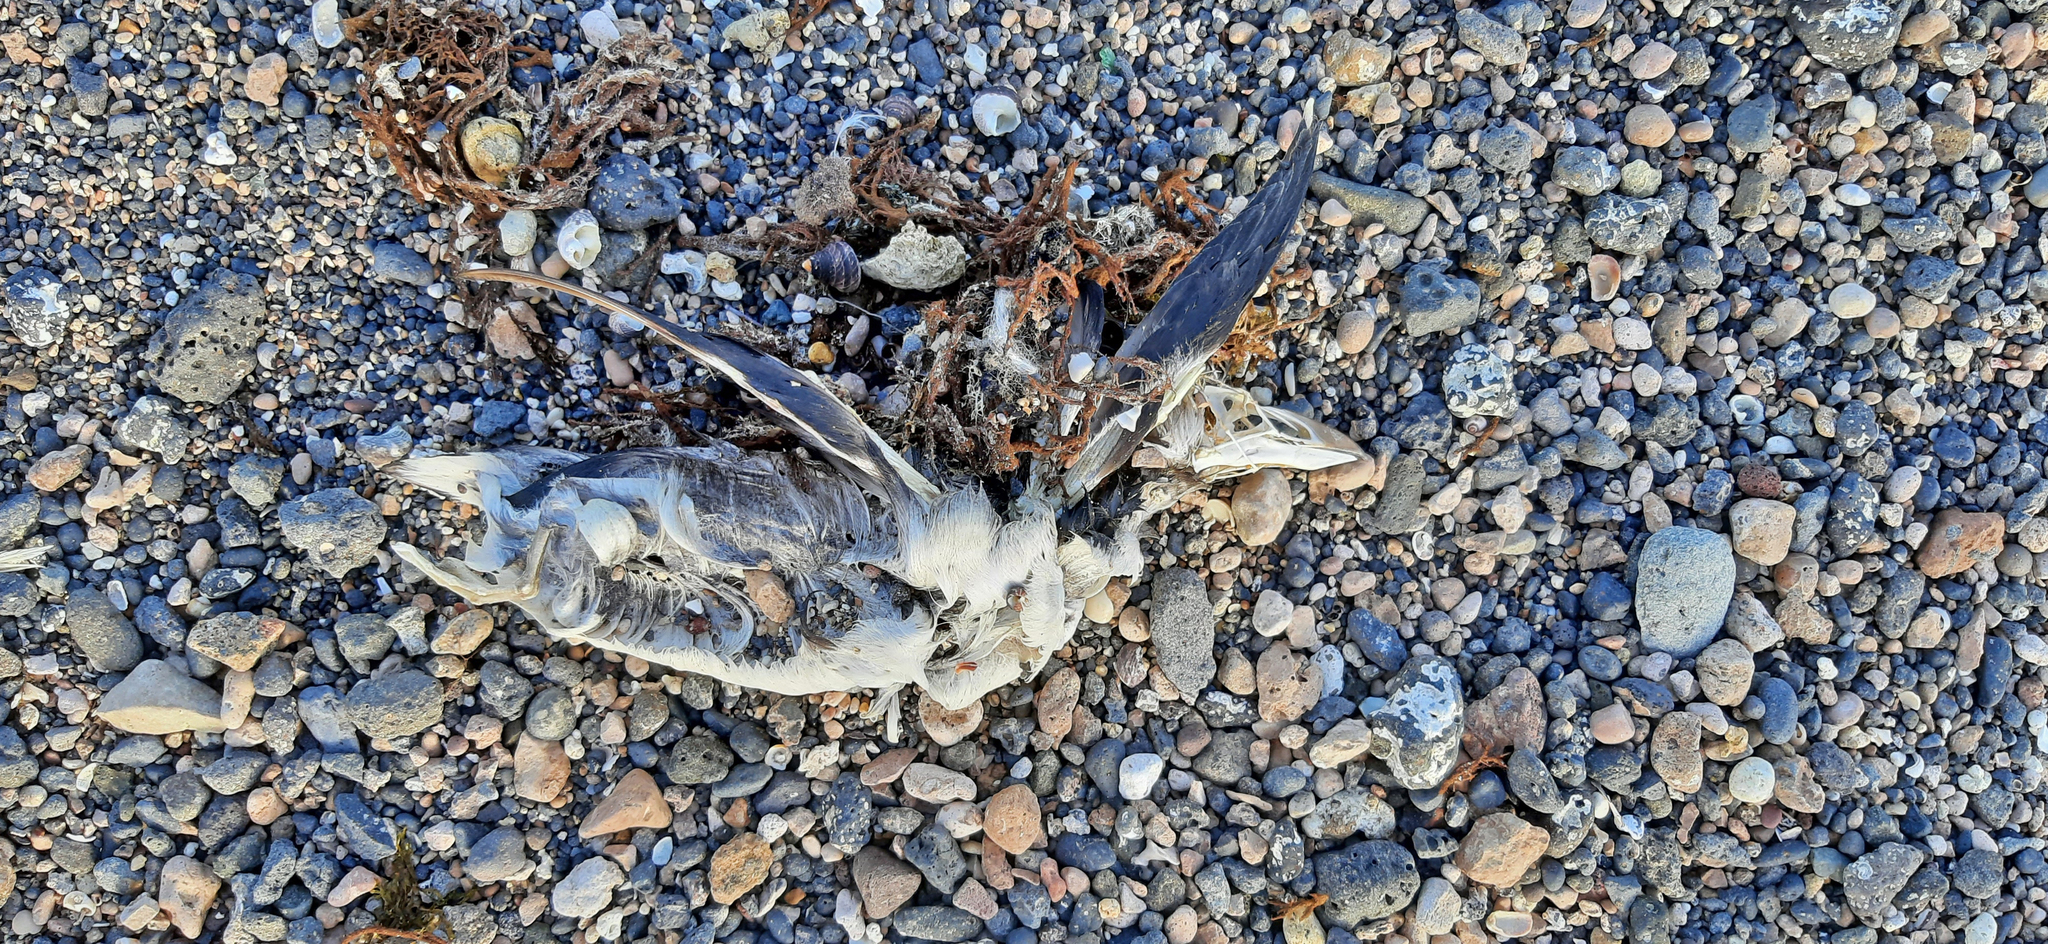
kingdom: Animalia
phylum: Chordata
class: Aves
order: Charadriiformes
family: Alcidae
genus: Alca
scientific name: Alca torda
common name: Razorbill
